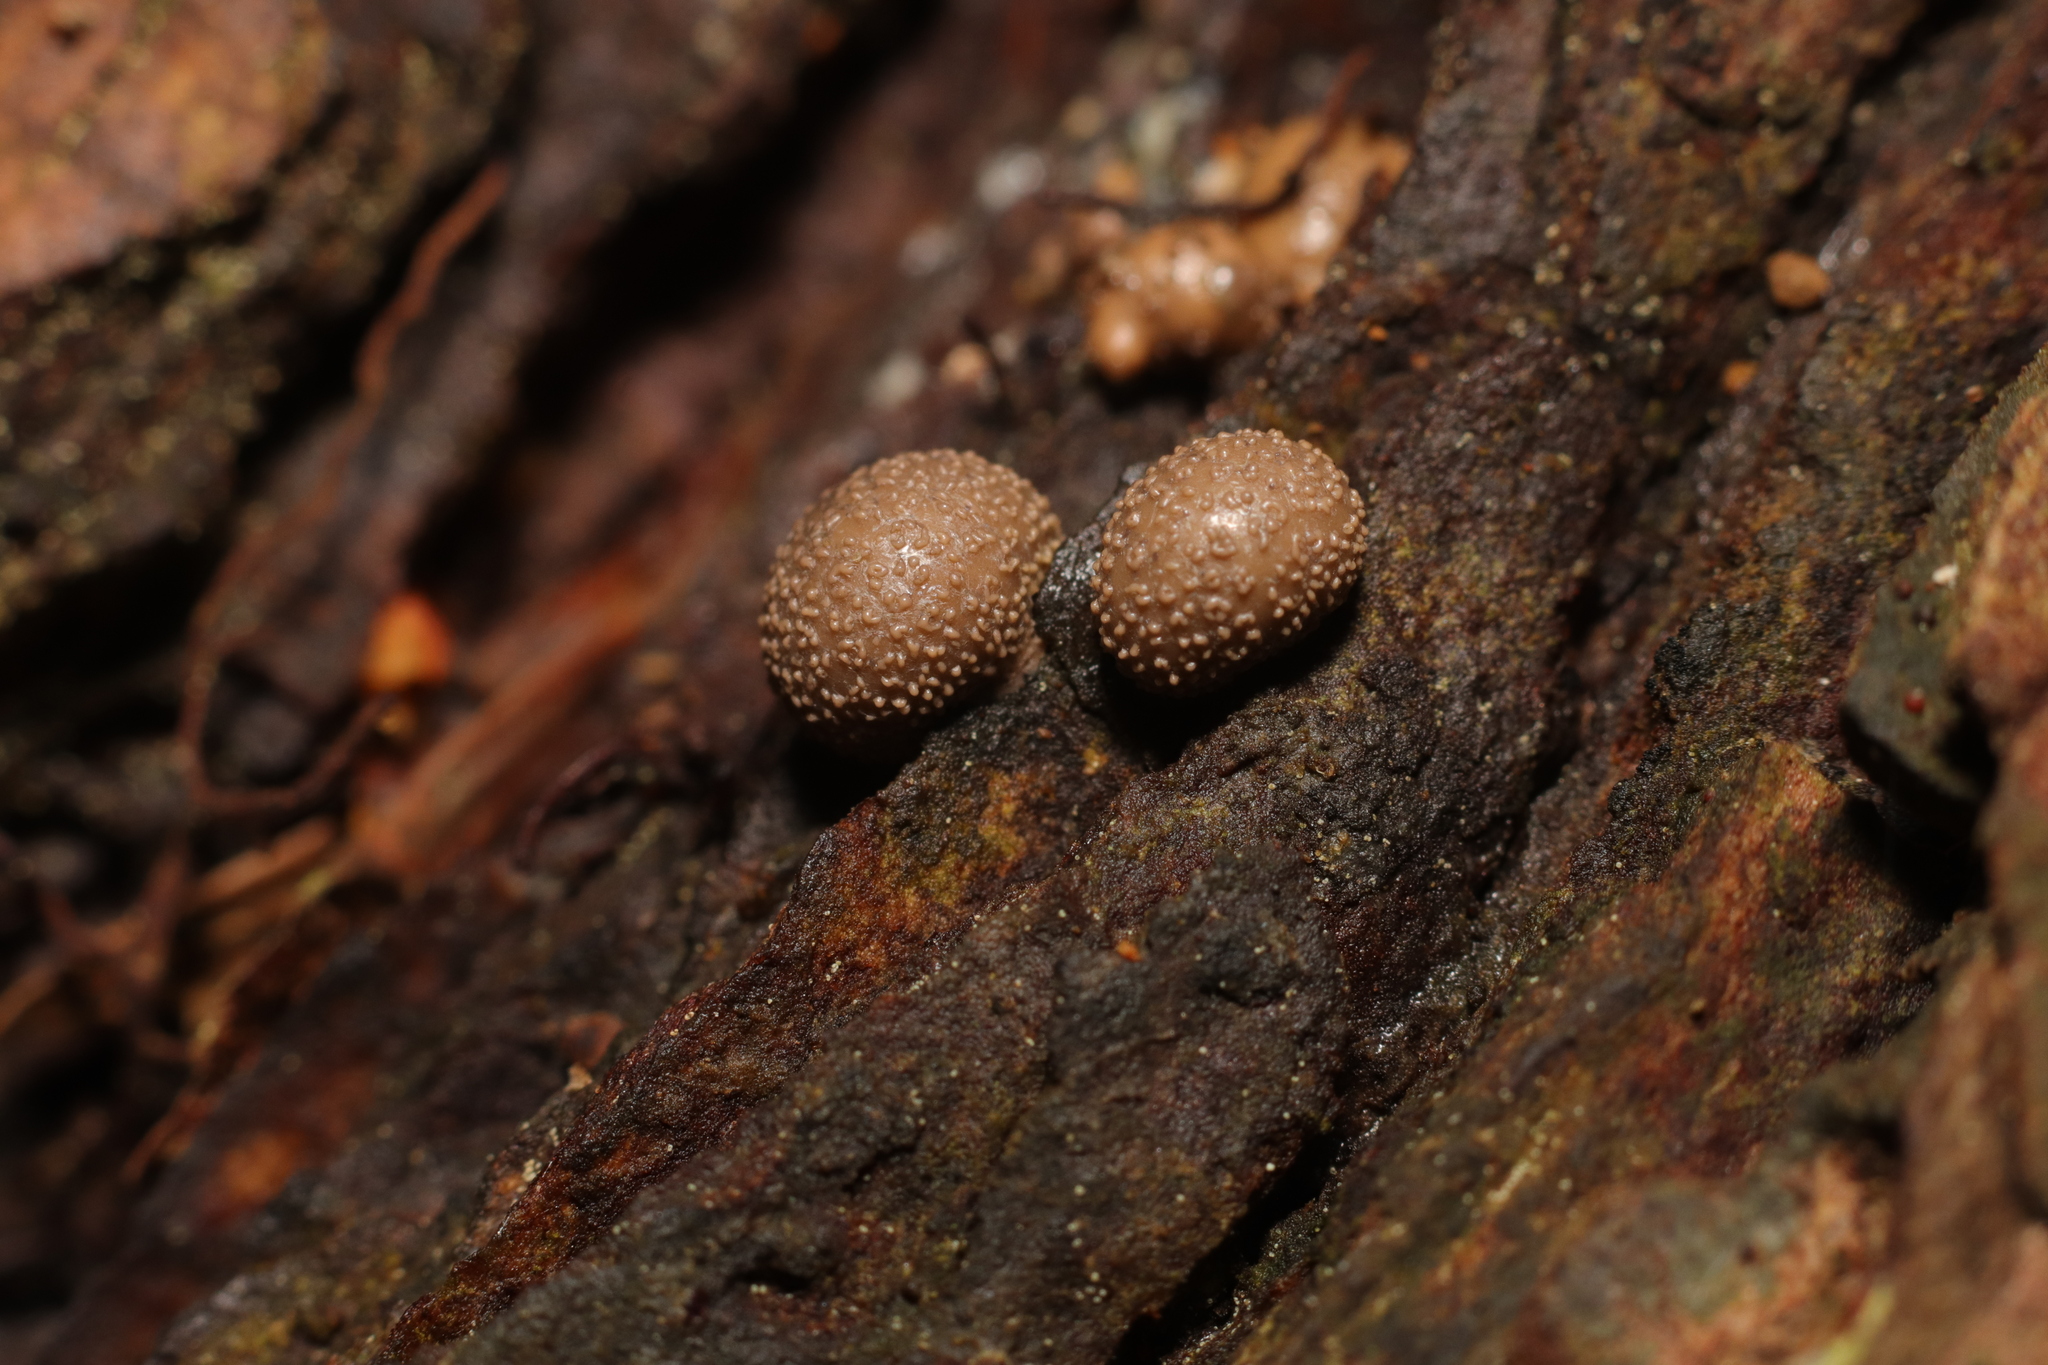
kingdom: Protozoa
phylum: Mycetozoa
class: Myxomycetes
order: Cribrariales
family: Tubiferaceae
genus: Lycogala
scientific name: Lycogala epidendrum
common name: Wolf's milk
